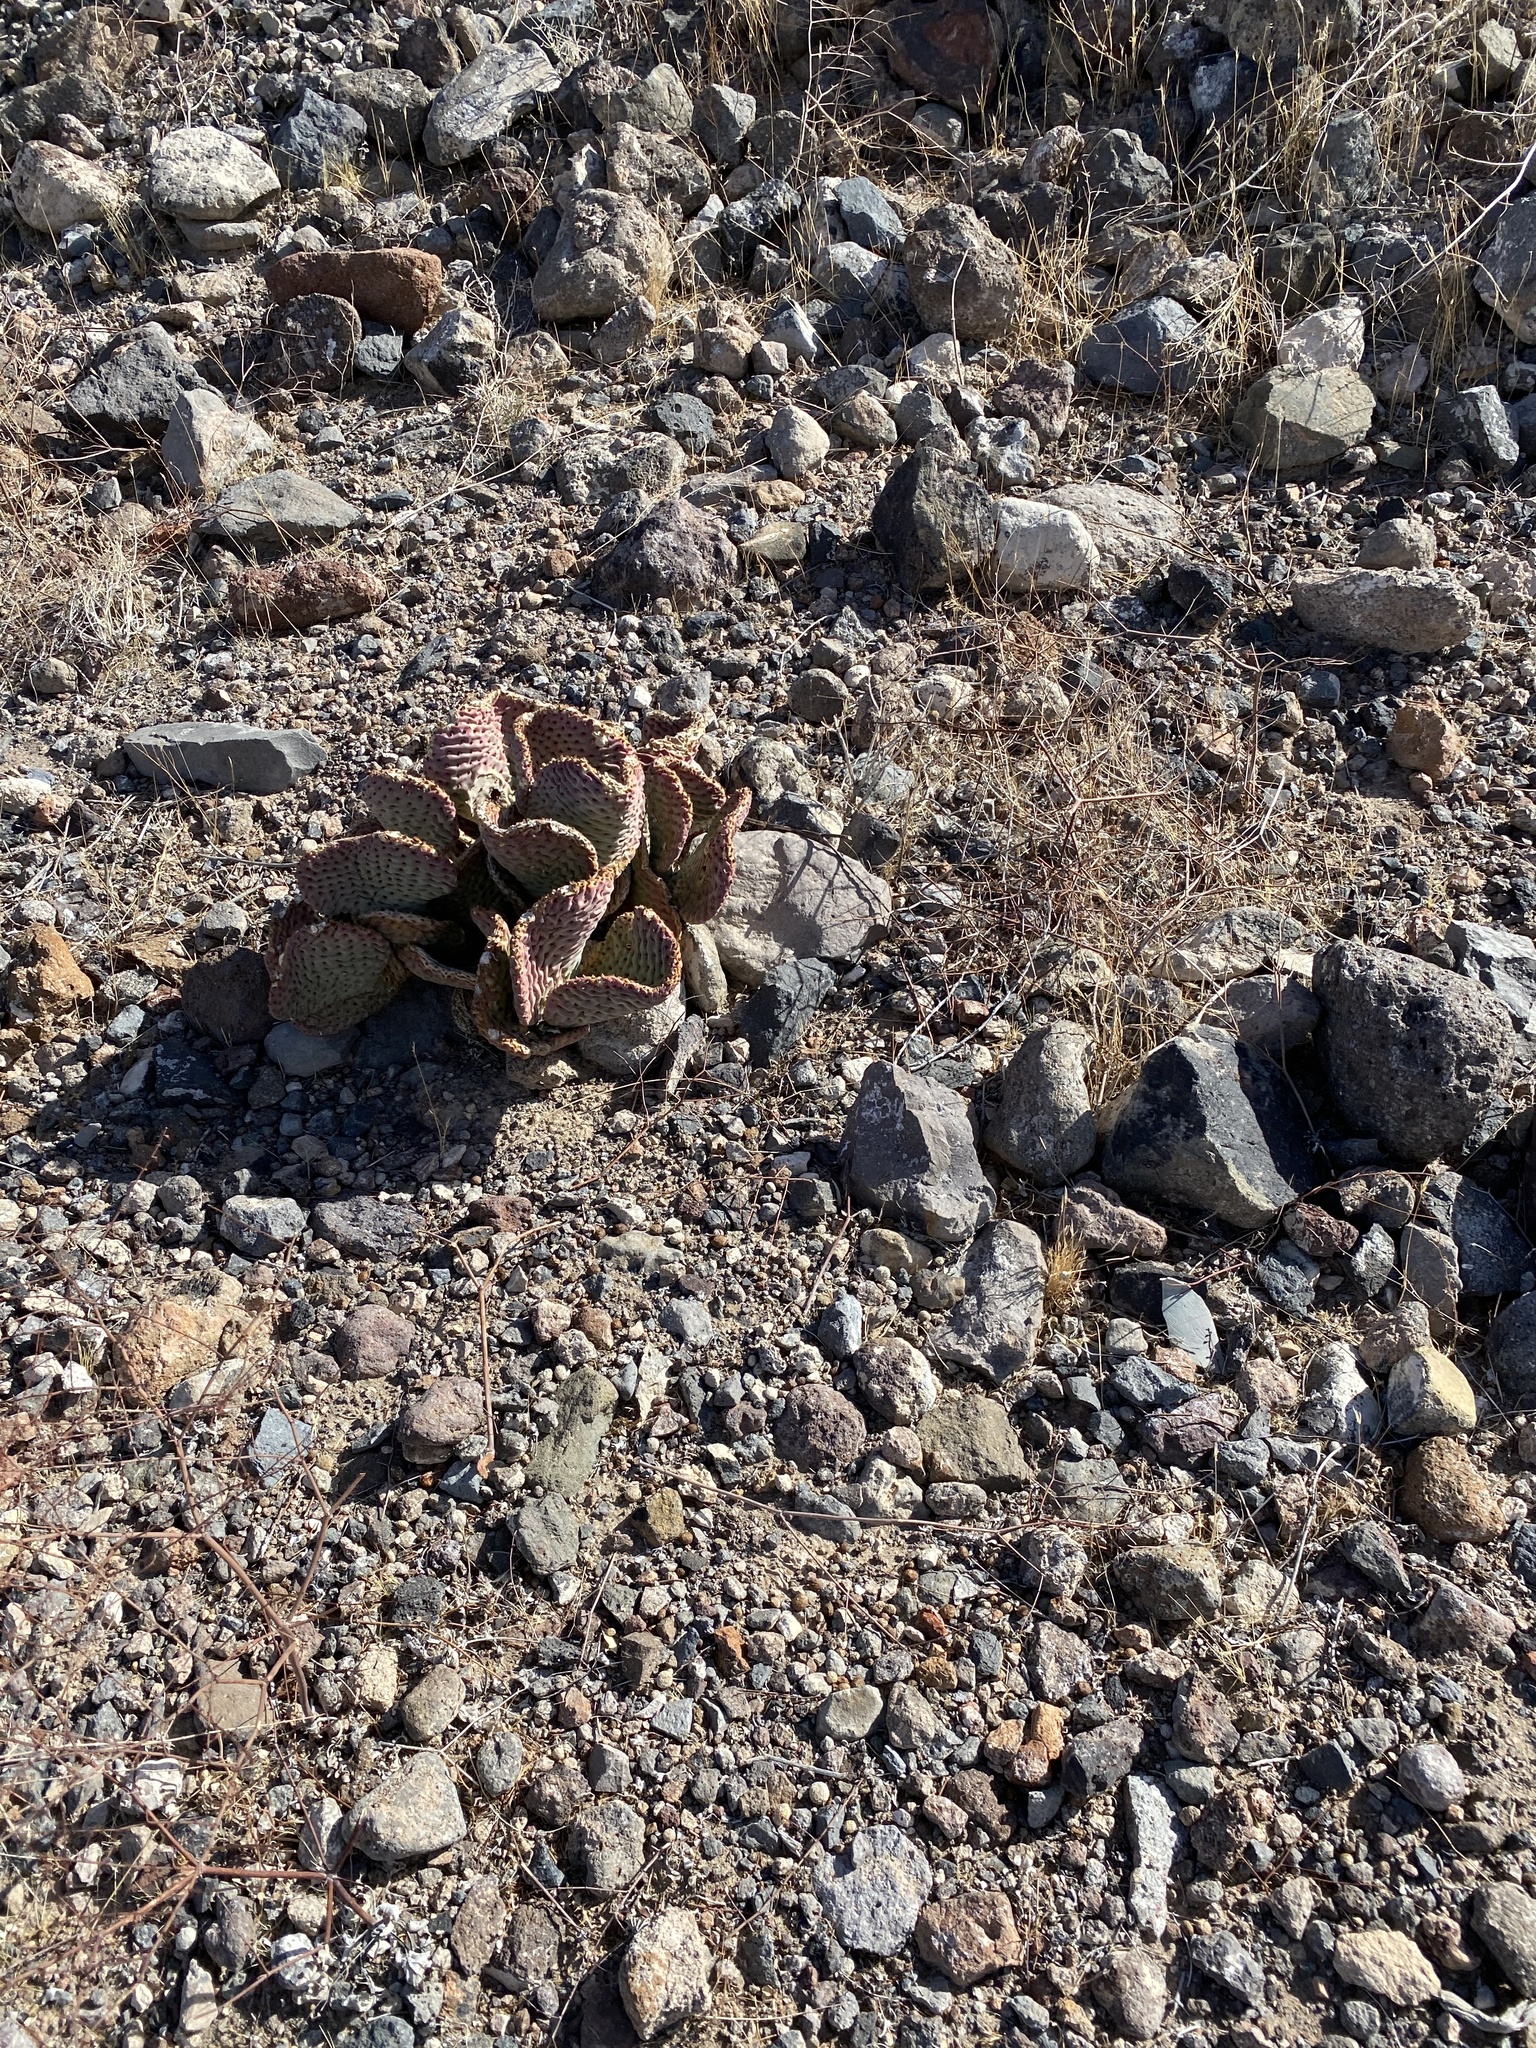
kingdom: Plantae
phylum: Tracheophyta
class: Magnoliopsida
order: Caryophyllales
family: Cactaceae
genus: Opuntia
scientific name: Opuntia basilaris
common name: Beavertail prickly-pear
